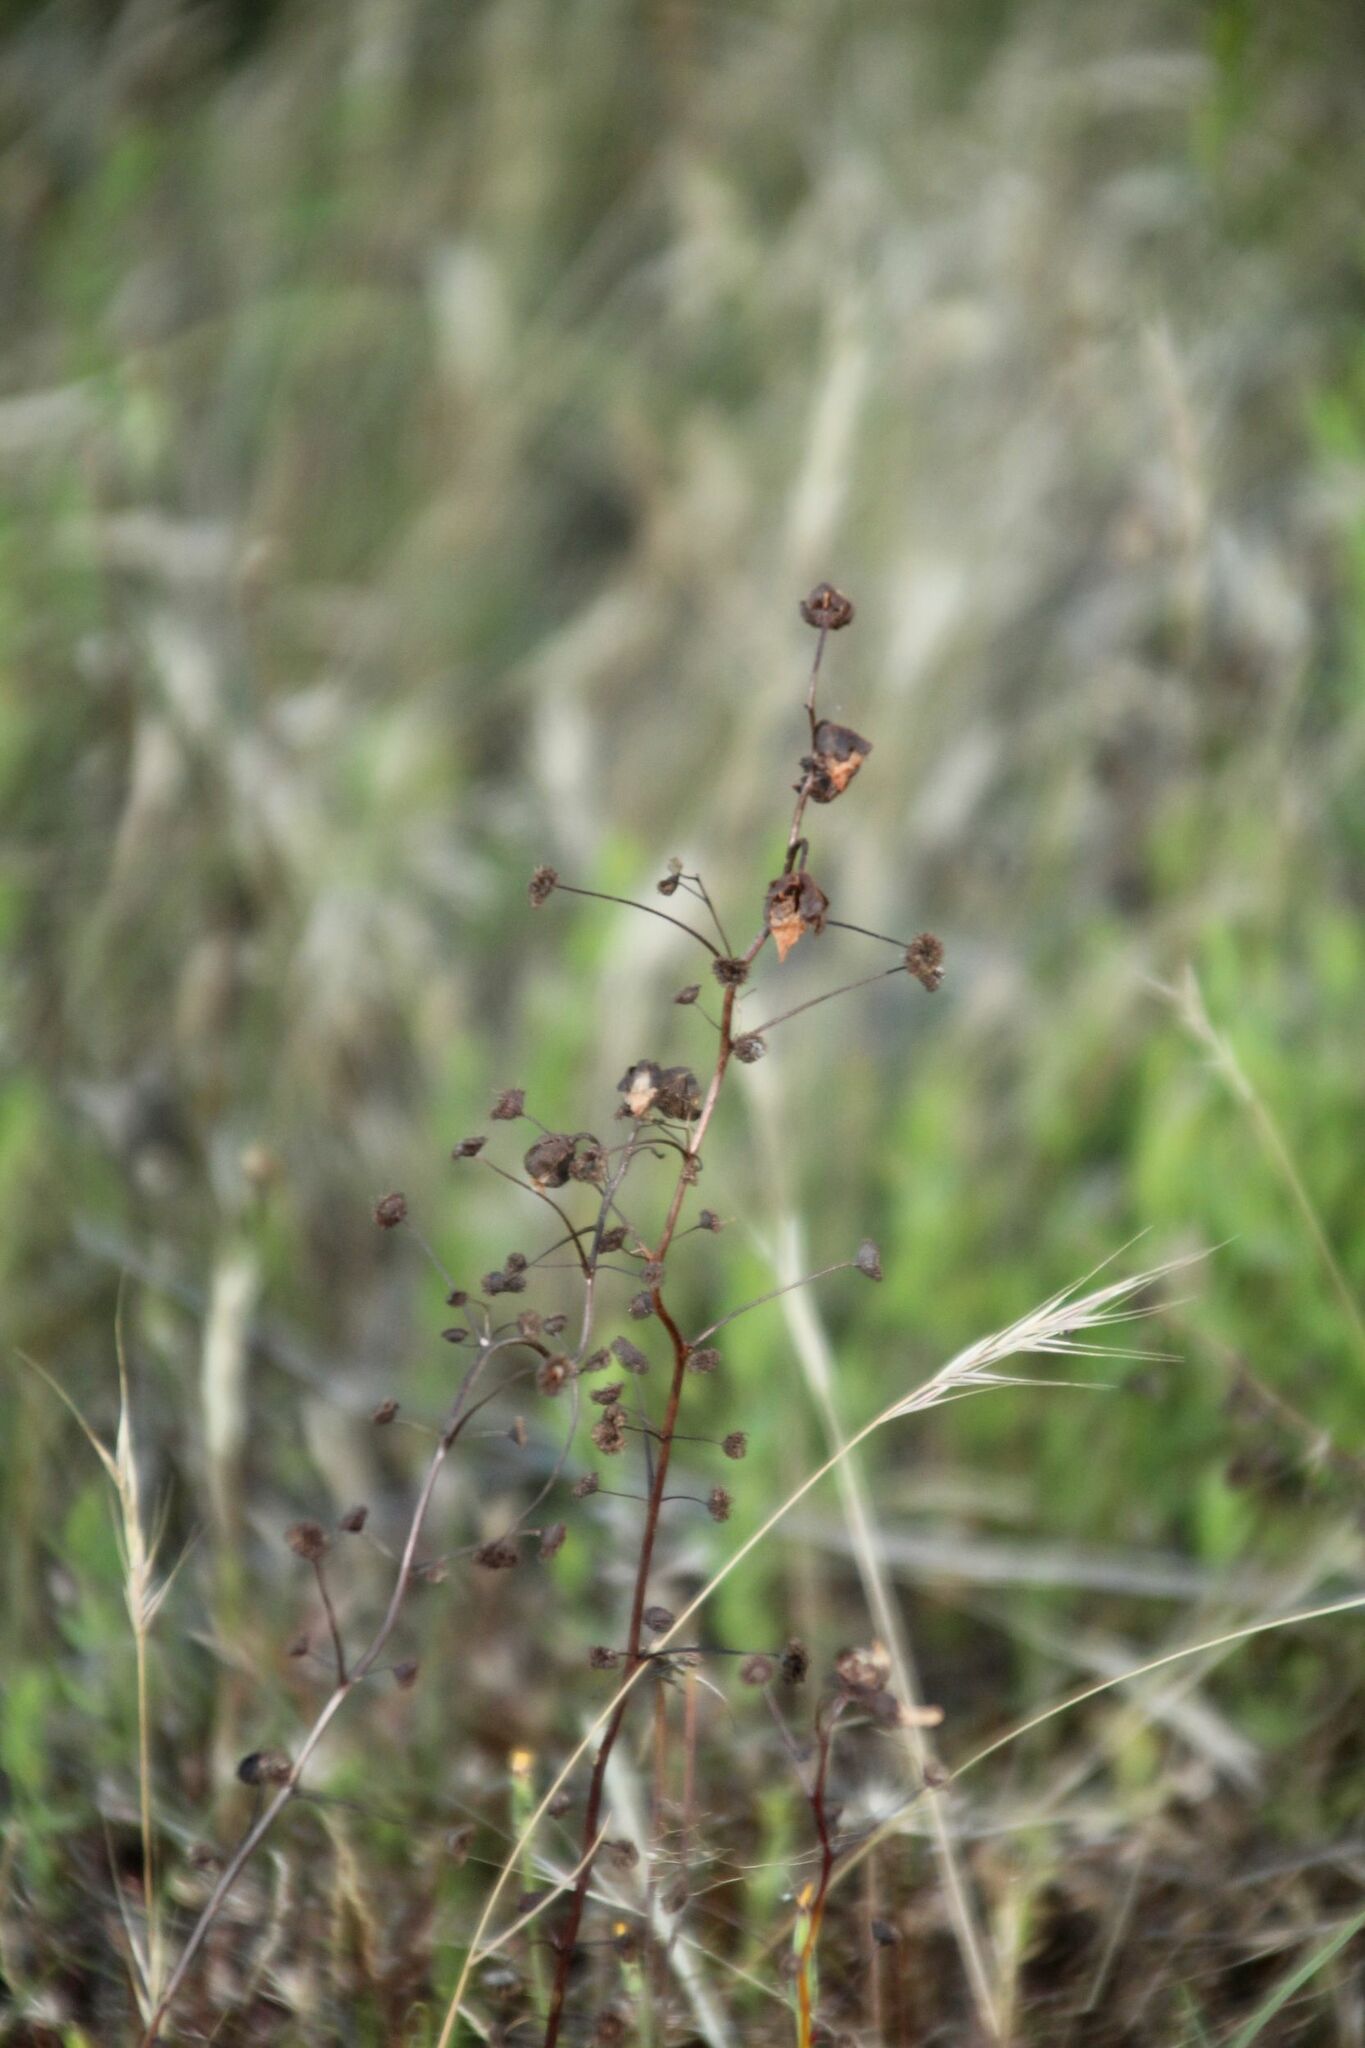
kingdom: Plantae
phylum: Tracheophyta
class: Magnoliopsida
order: Caryophyllales
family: Droseraceae
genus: Drosera
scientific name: Drosera stricticaulis
